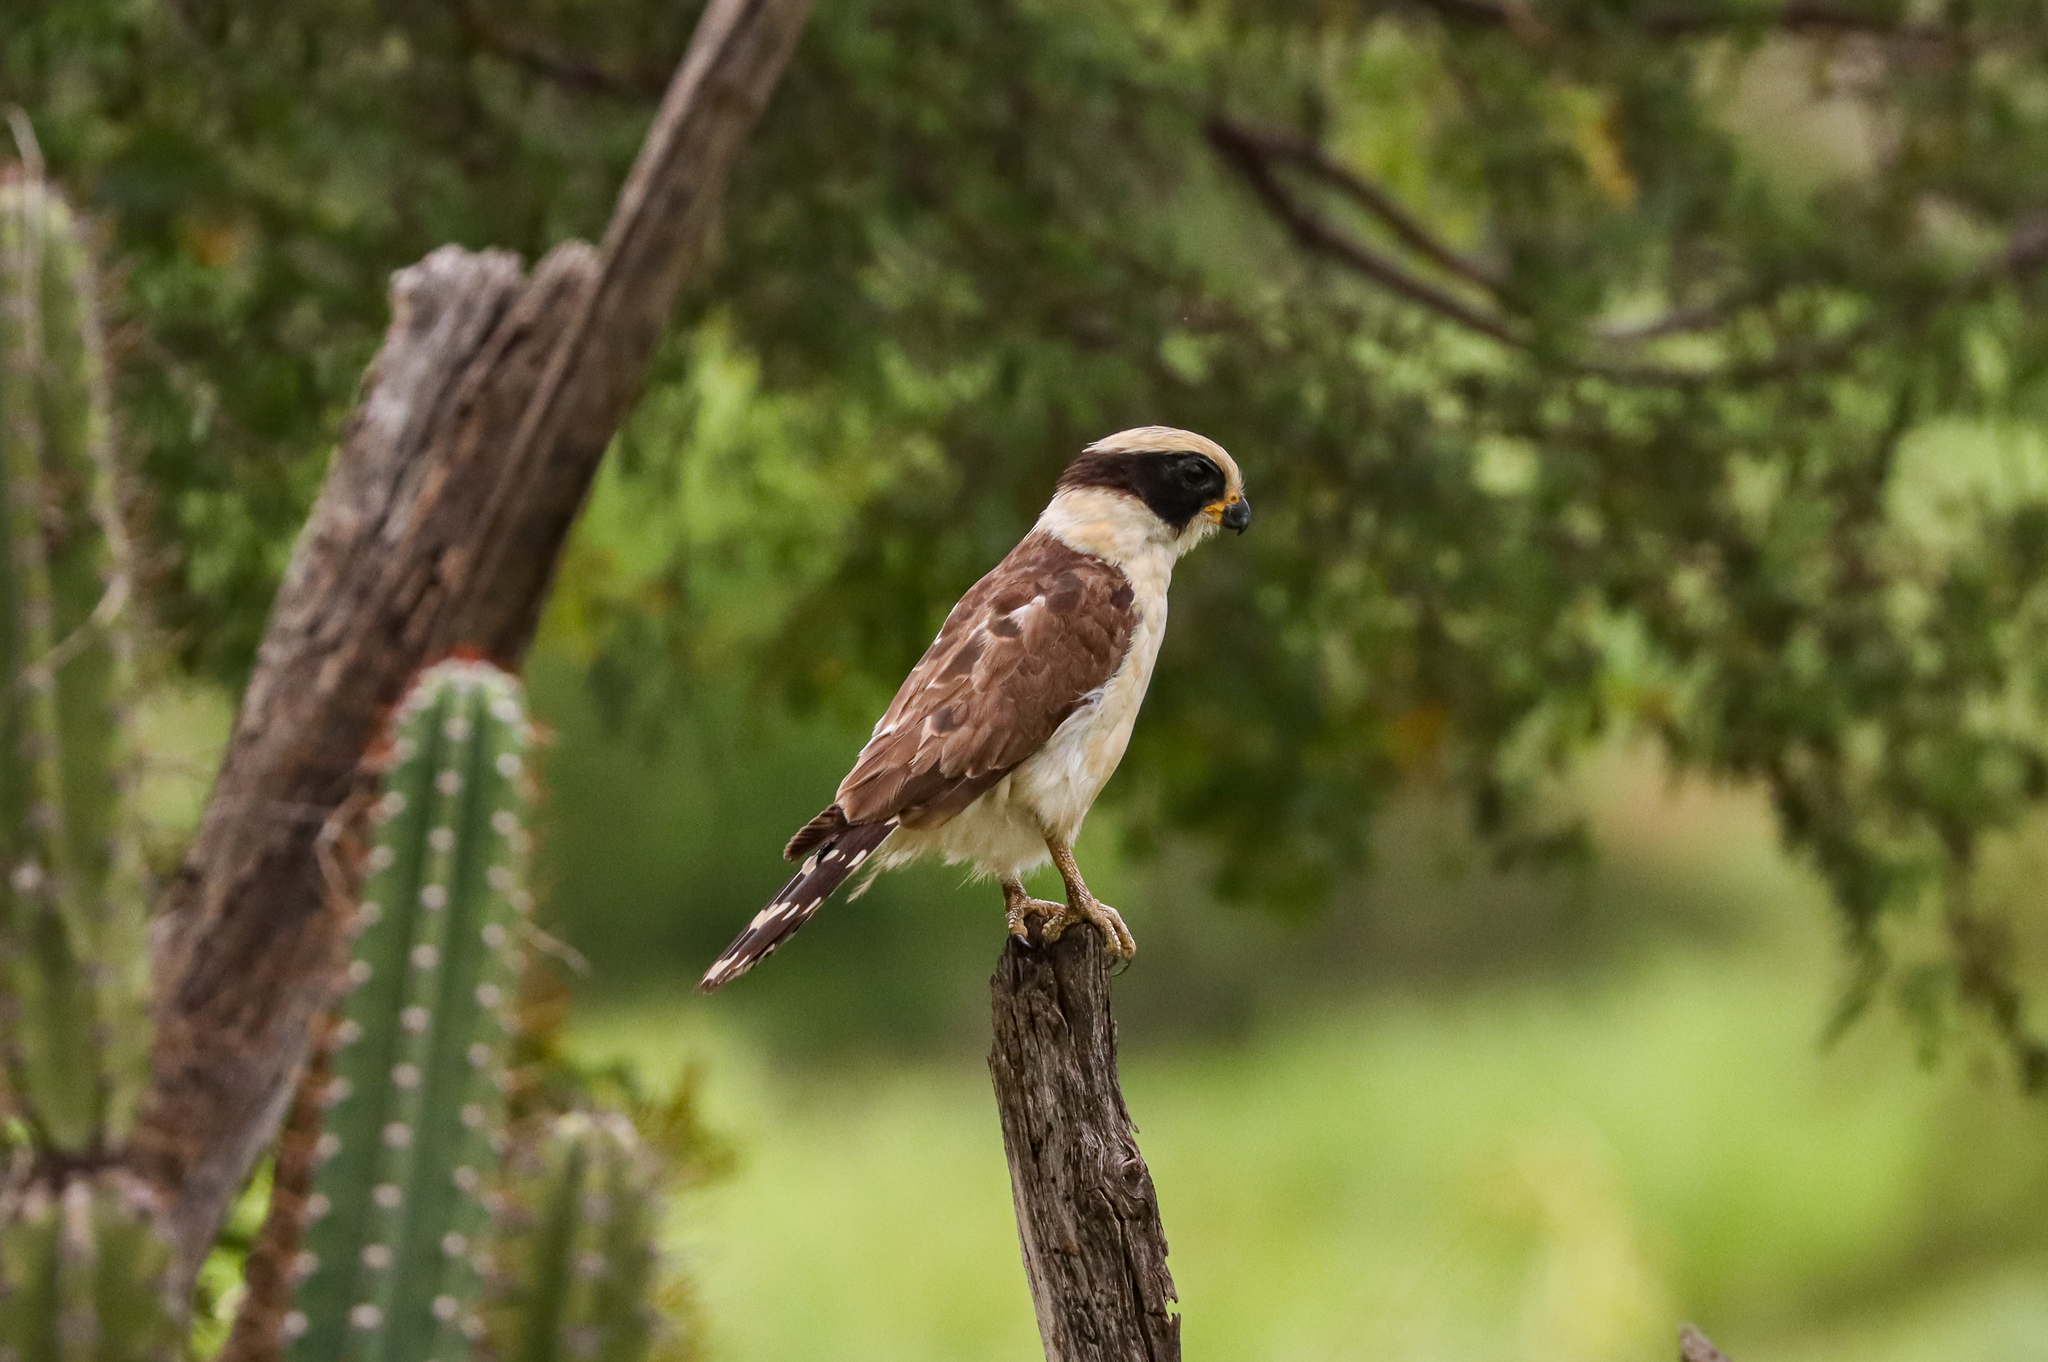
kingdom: Animalia
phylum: Chordata
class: Aves
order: Falconiformes
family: Falconidae
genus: Herpetotheres
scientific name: Herpetotheres cachinnans
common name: Laughing falcon
